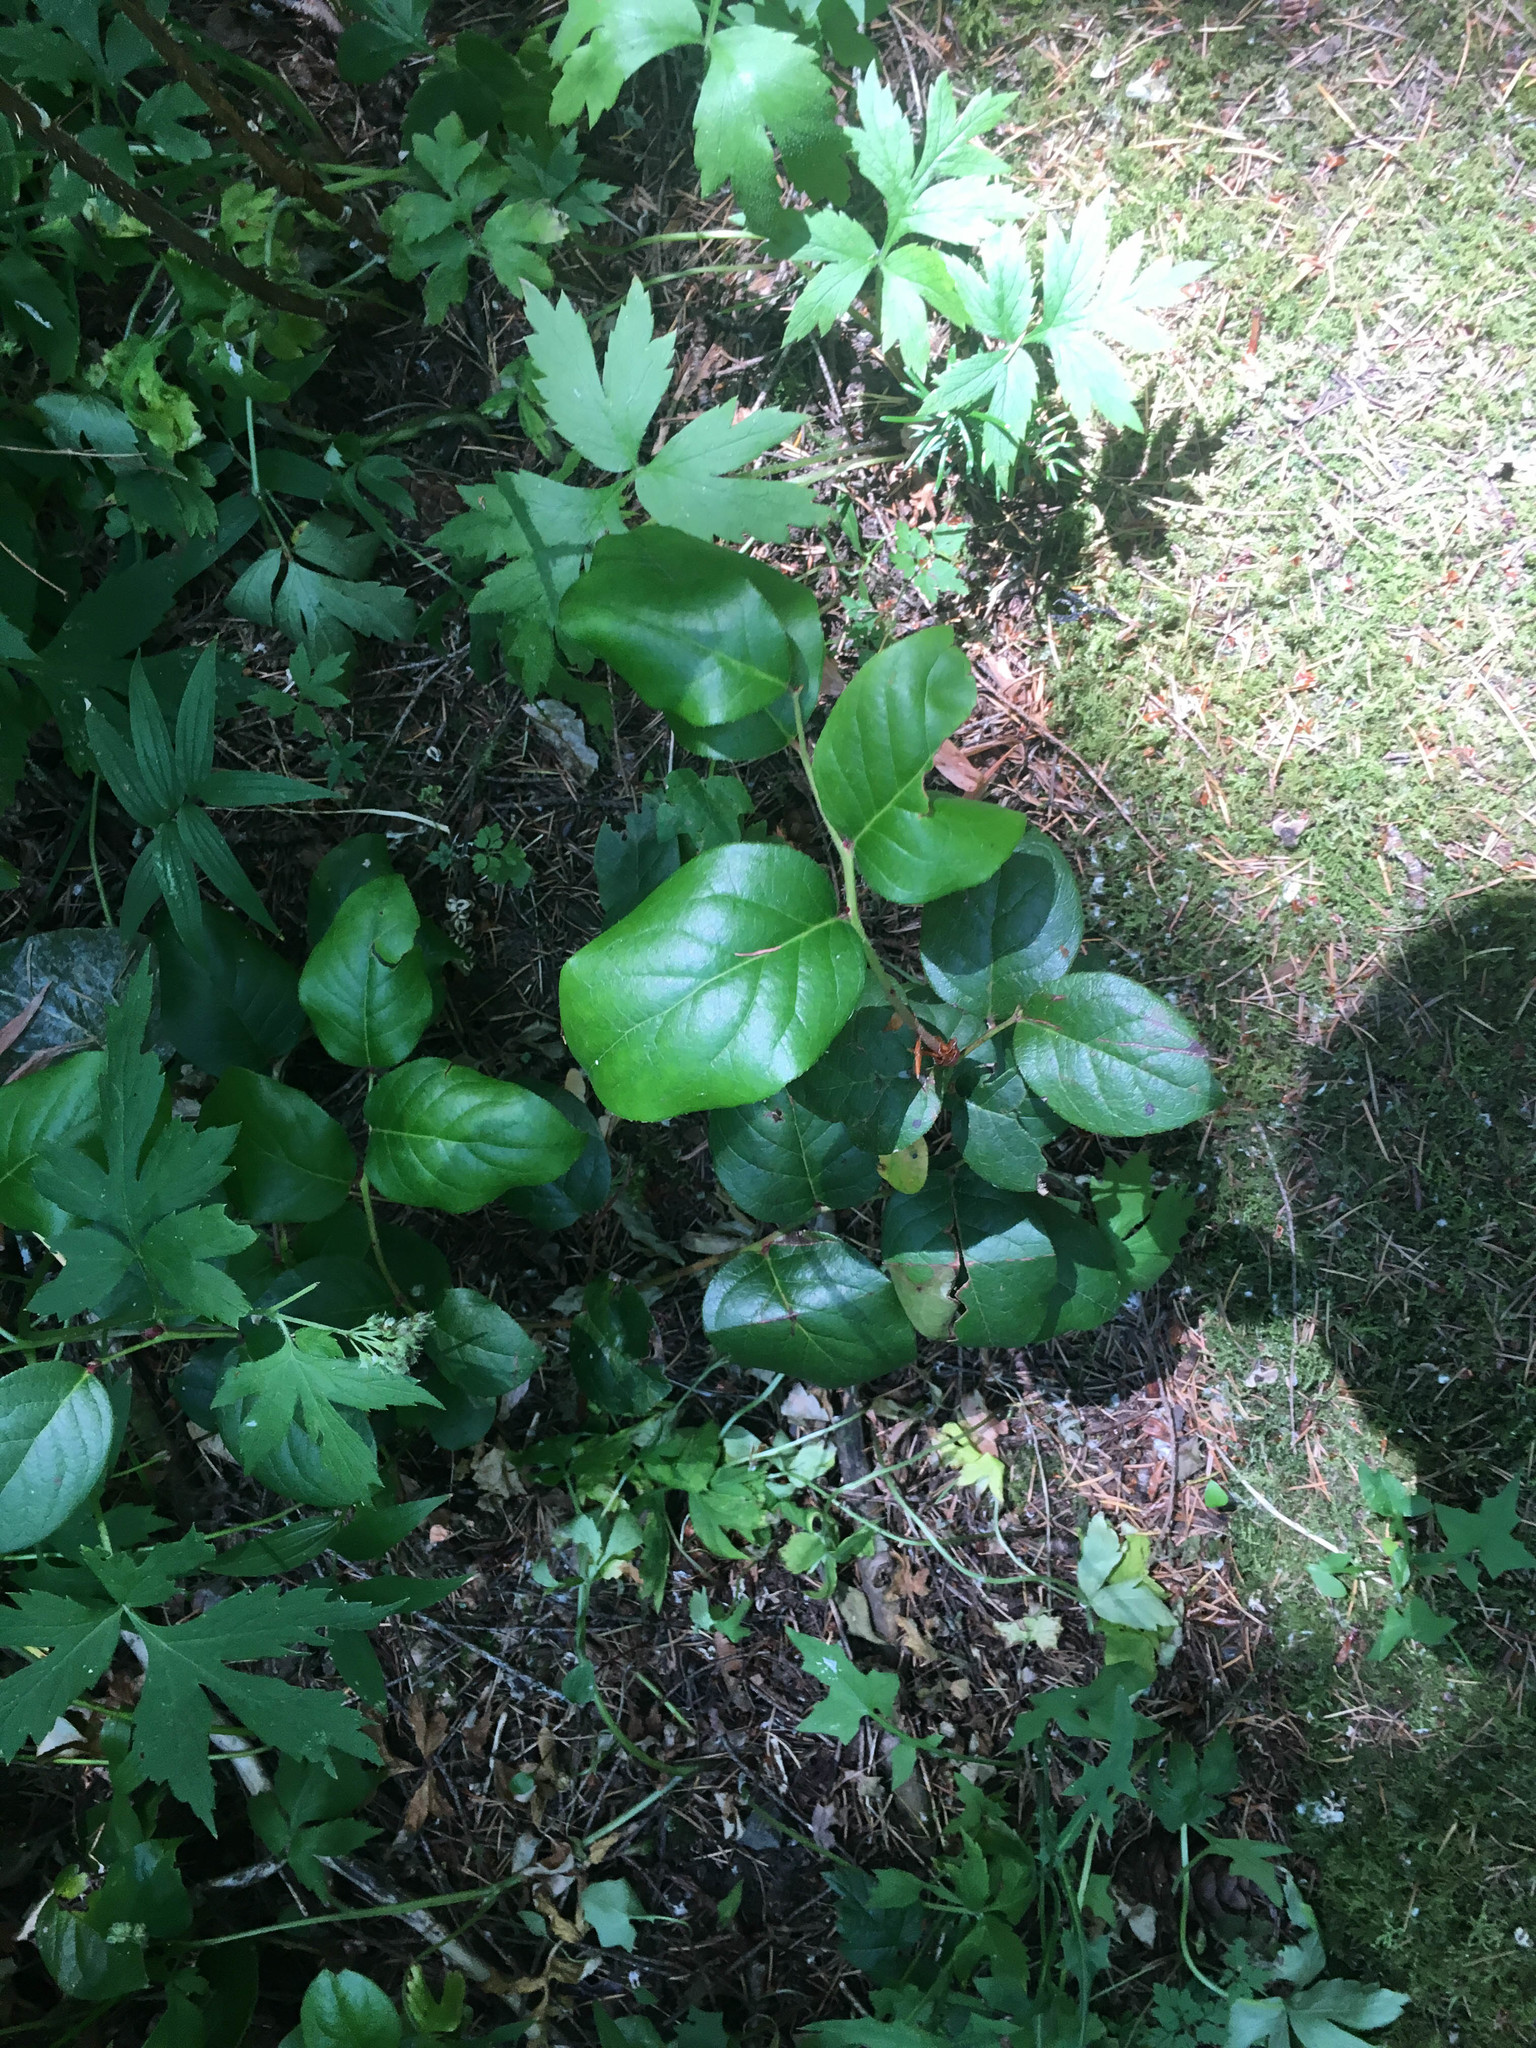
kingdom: Plantae
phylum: Tracheophyta
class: Magnoliopsida
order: Ericales
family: Ericaceae
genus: Gaultheria
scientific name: Gaultheria shallon
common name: Shallon
